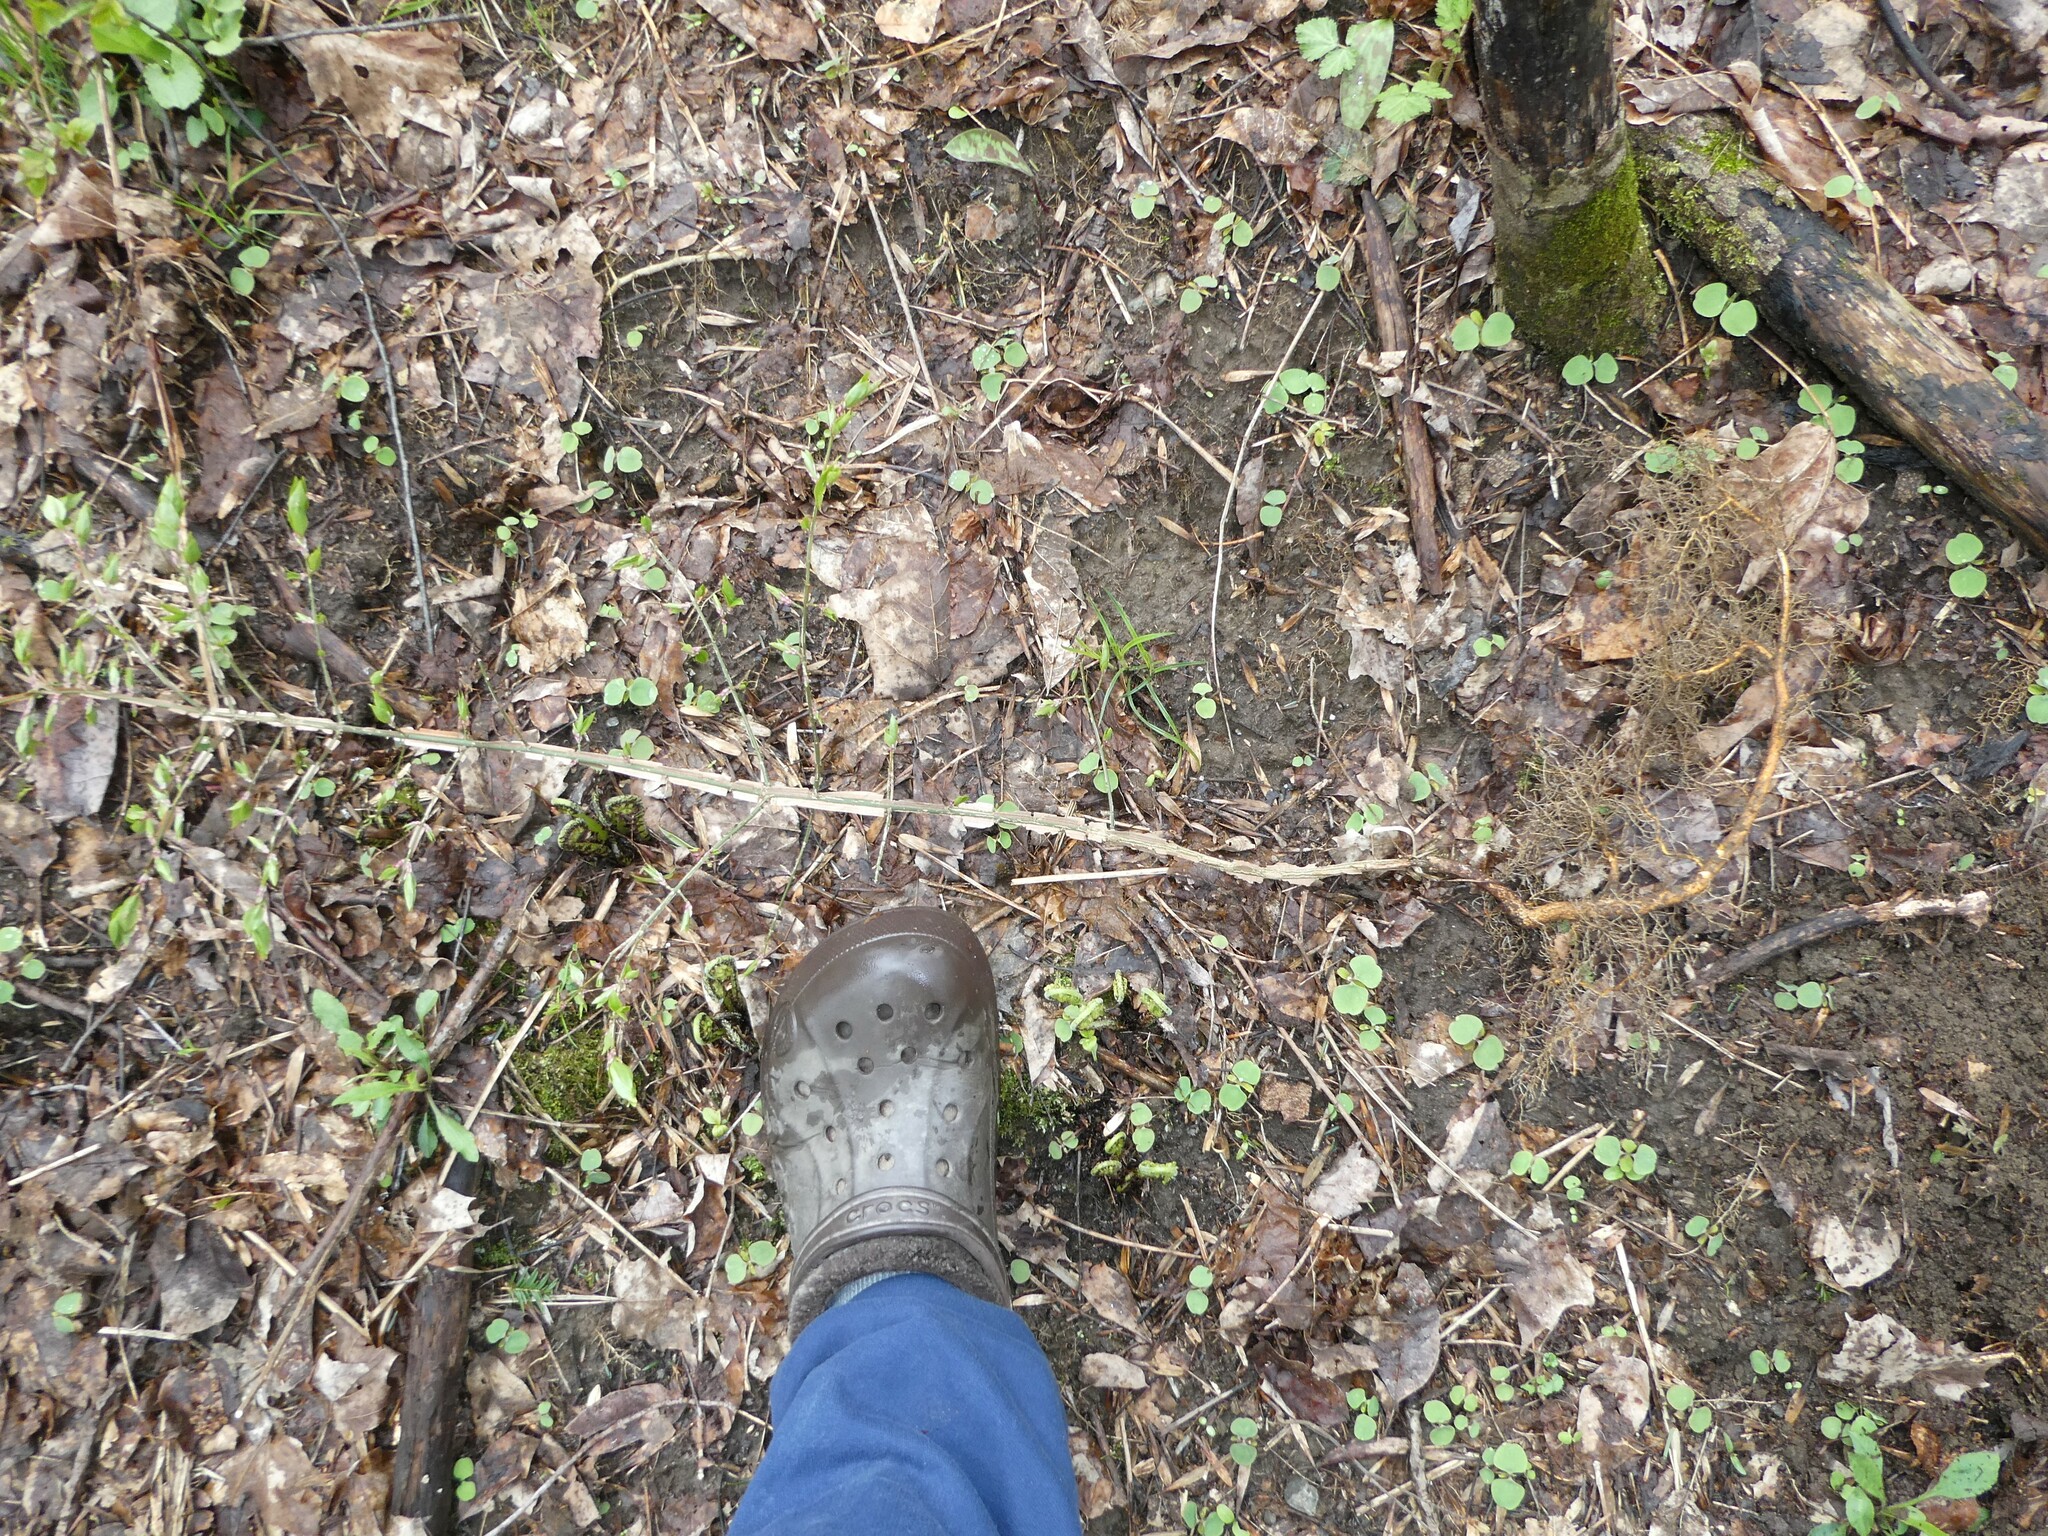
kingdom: Plantae
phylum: Tracheophyta
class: Magnoliopsida
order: Celastrales
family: Celastraceae
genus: Euonymus
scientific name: Euonymus alatus
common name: Winged euonymus
